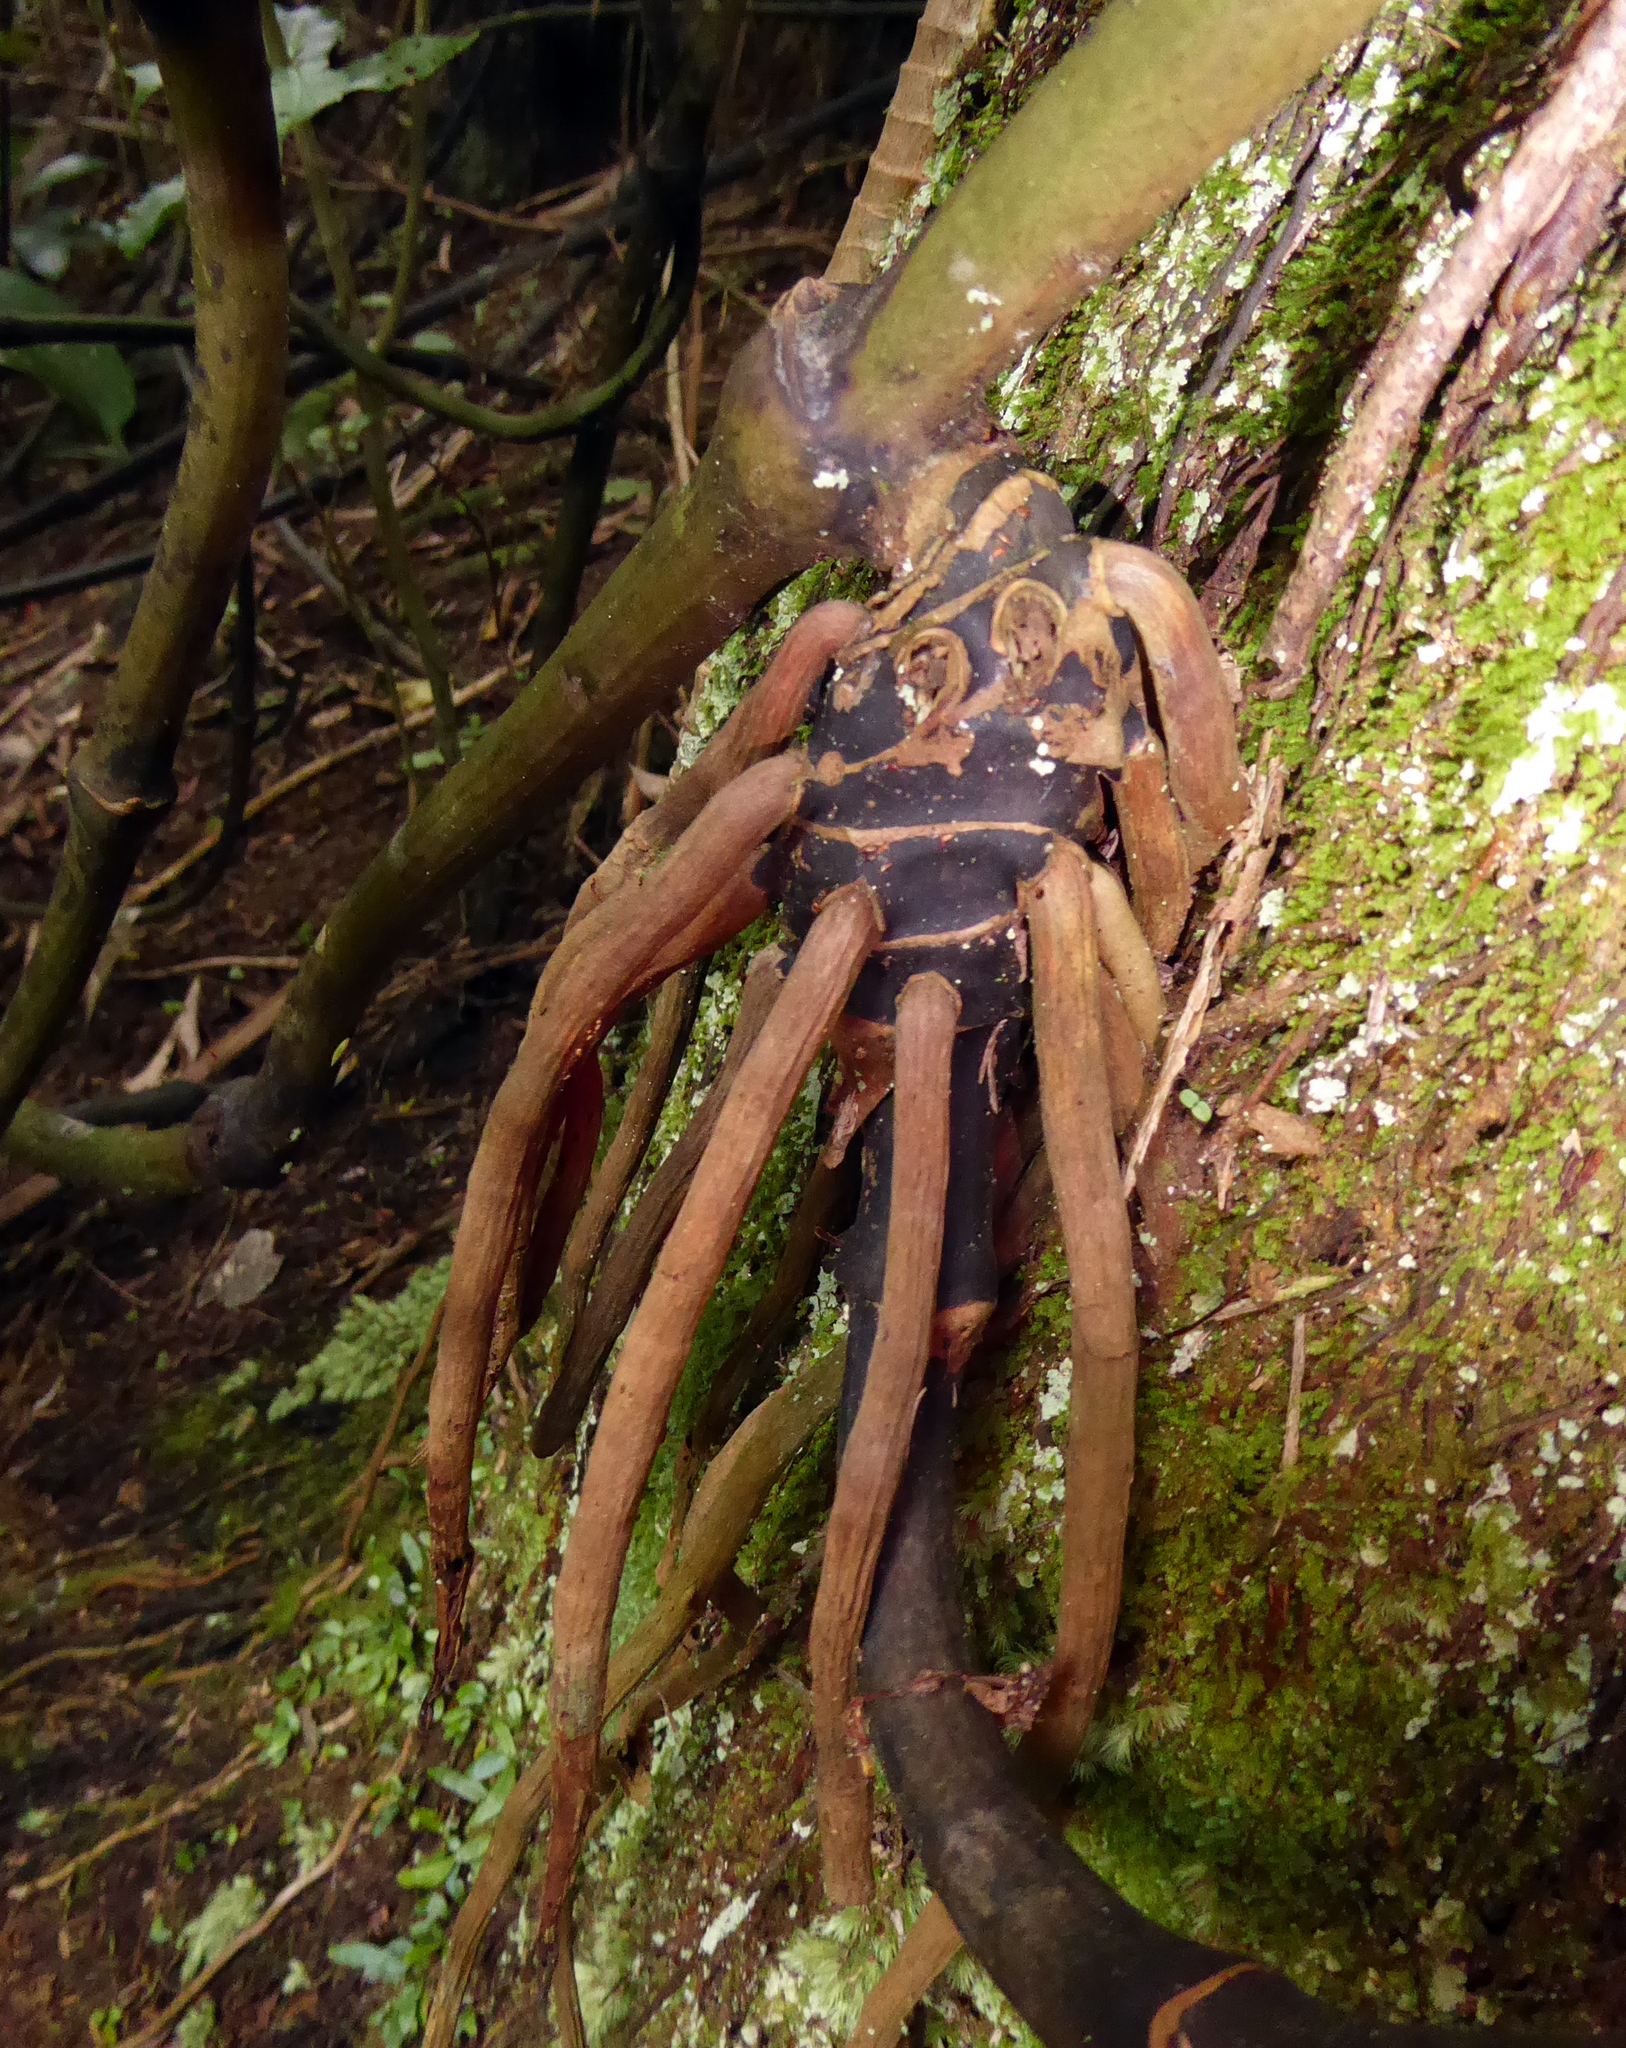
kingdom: Plantae
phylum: Tracheophyta
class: Liliopsida
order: Liliales
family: Ripogonaceae
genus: Ripogonum
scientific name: Ripogonum scandens
